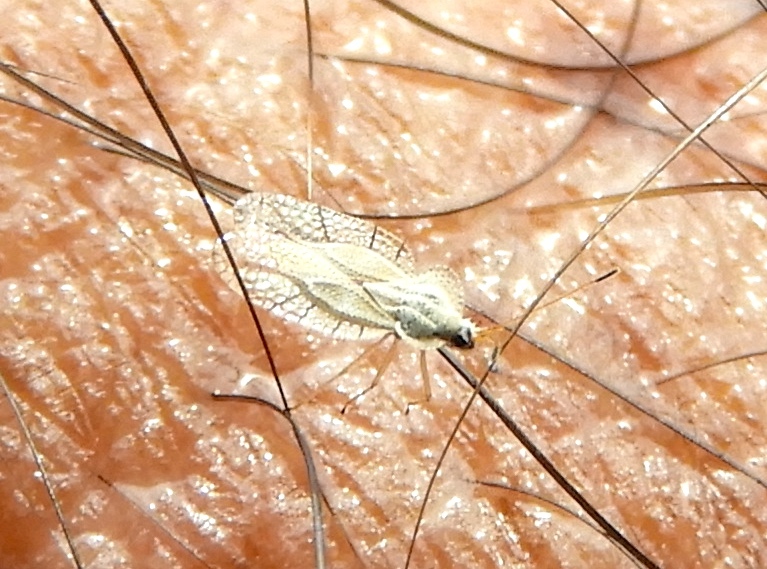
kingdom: Animalia
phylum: Arthropoda
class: Insecta
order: Hemiptera
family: Tingidae
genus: Gargaphia
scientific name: Gargaphia
